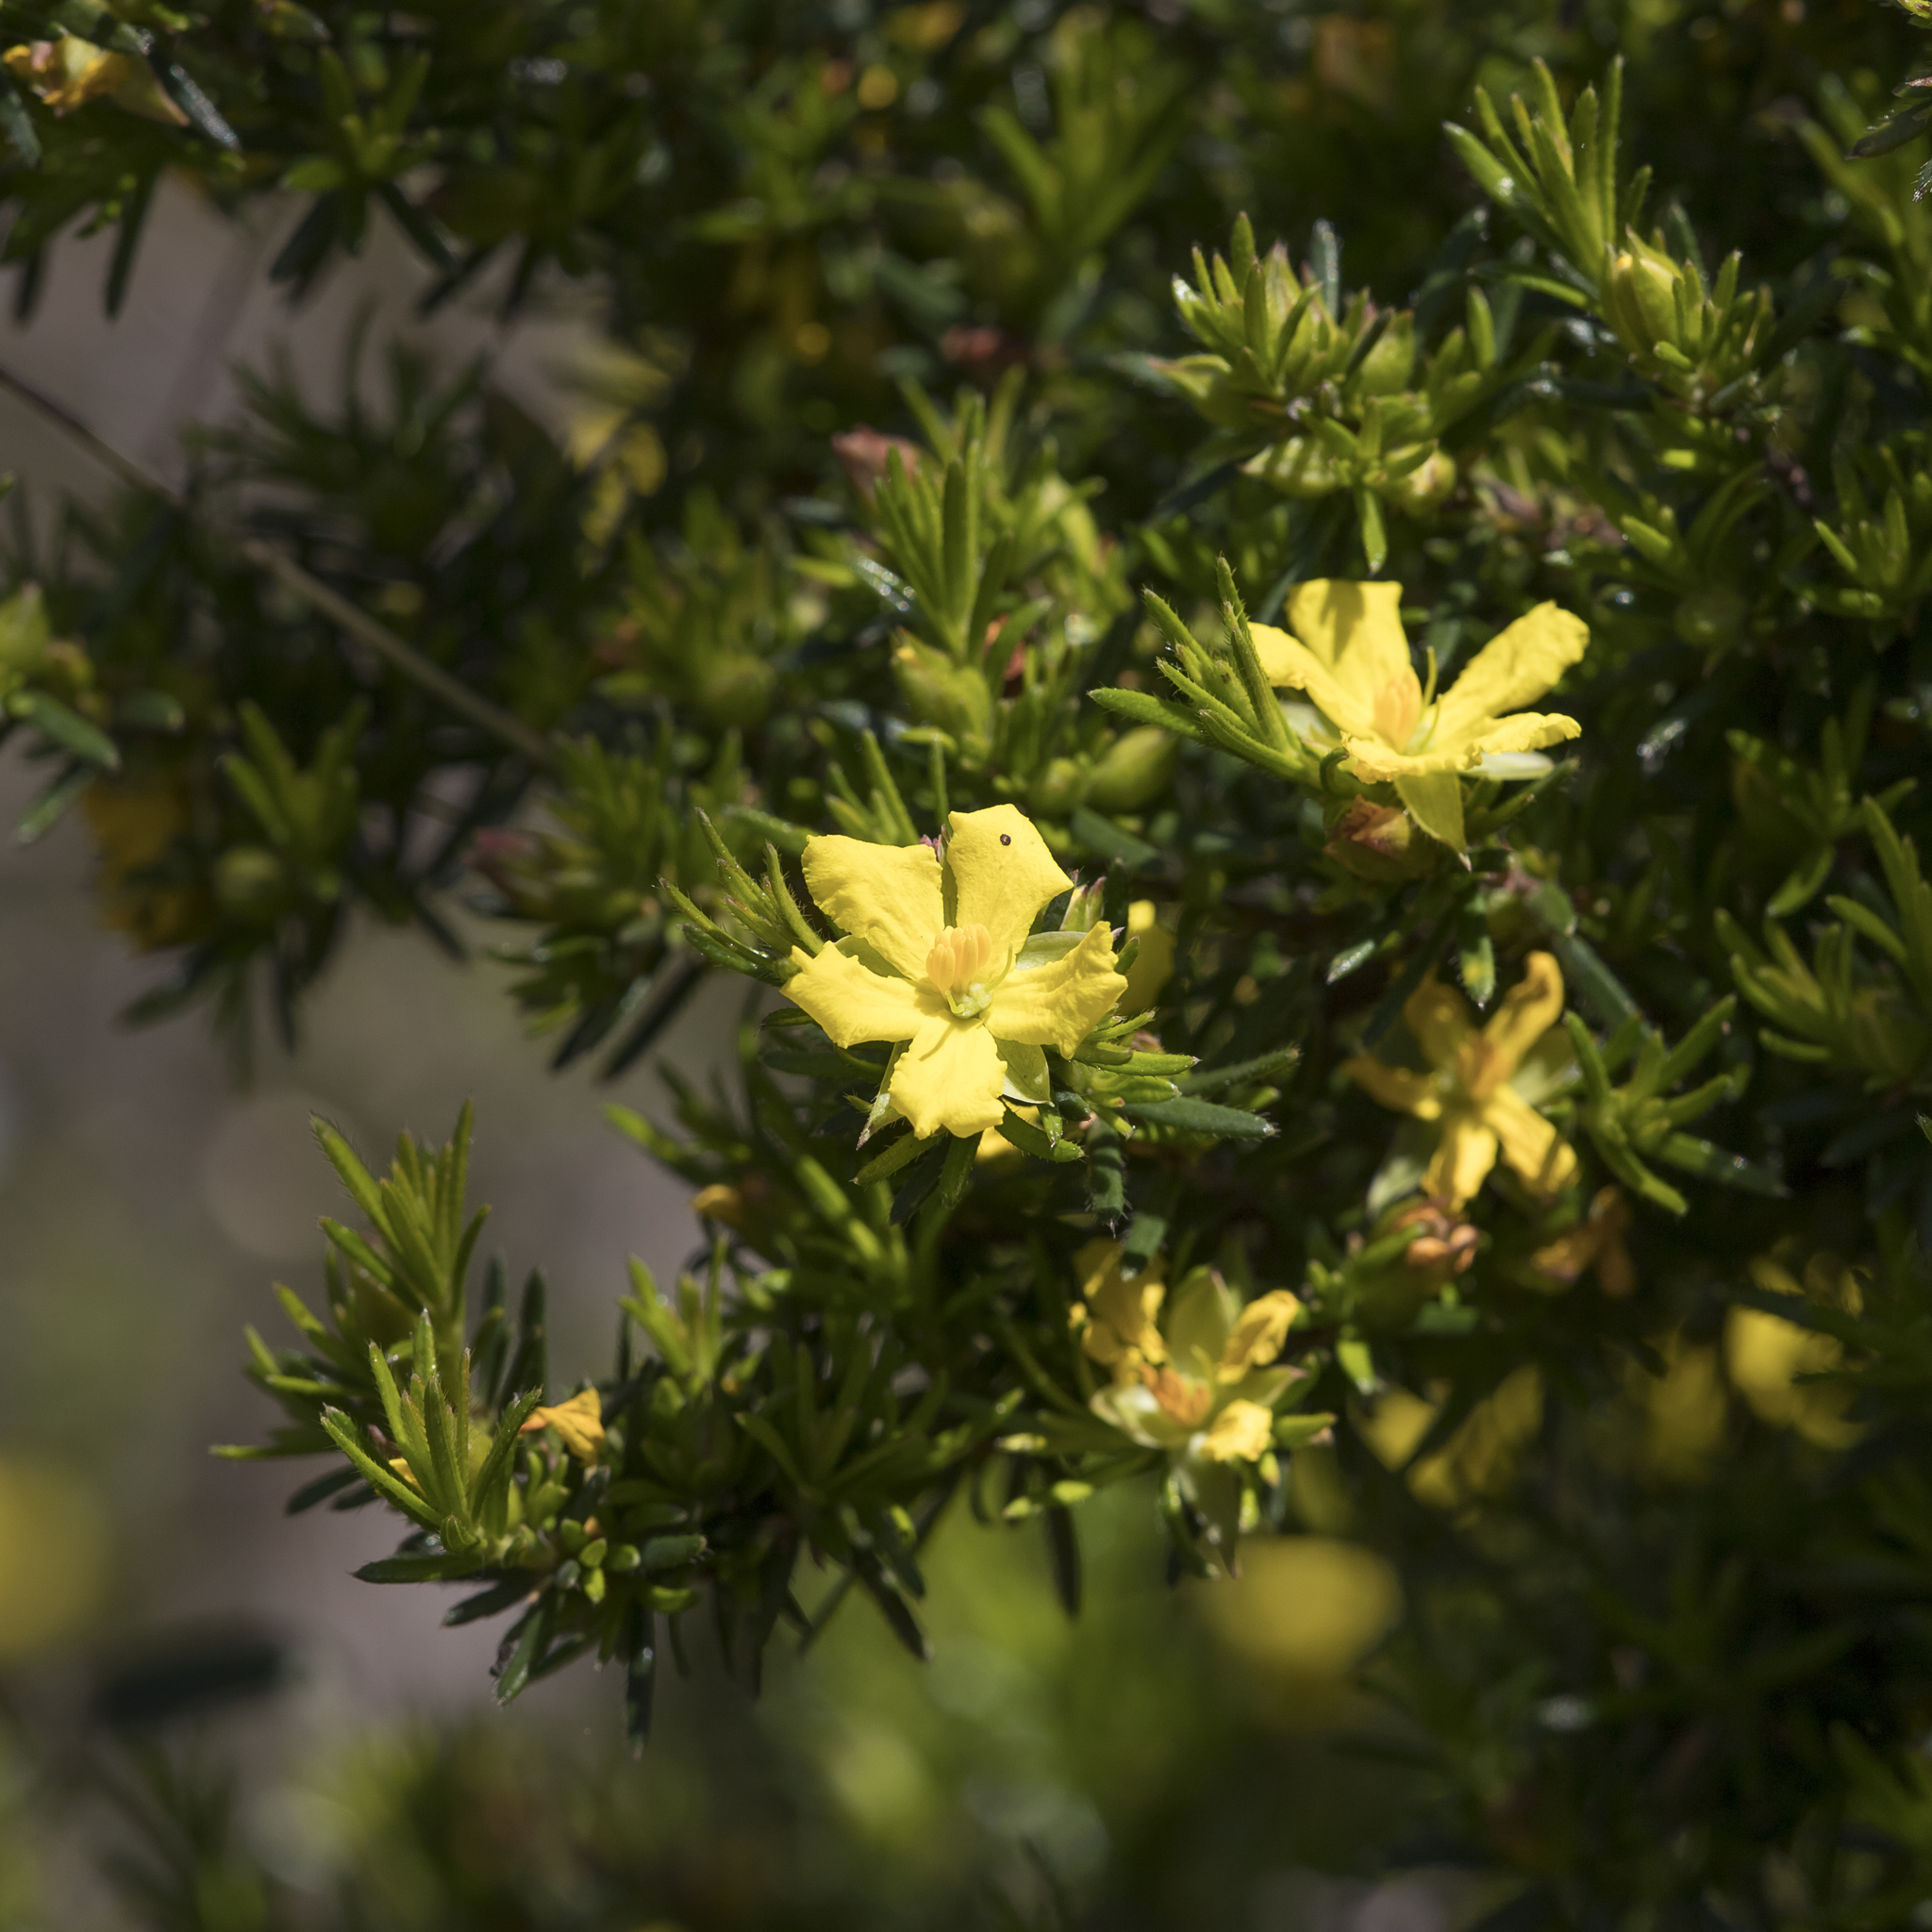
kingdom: Plantae
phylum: Tracheophyta
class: Magnoliopsida
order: Dilleniales
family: Dilleniaceae
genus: Hibbertia
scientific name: Hibbertia riparia
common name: Erect guinea-flower
